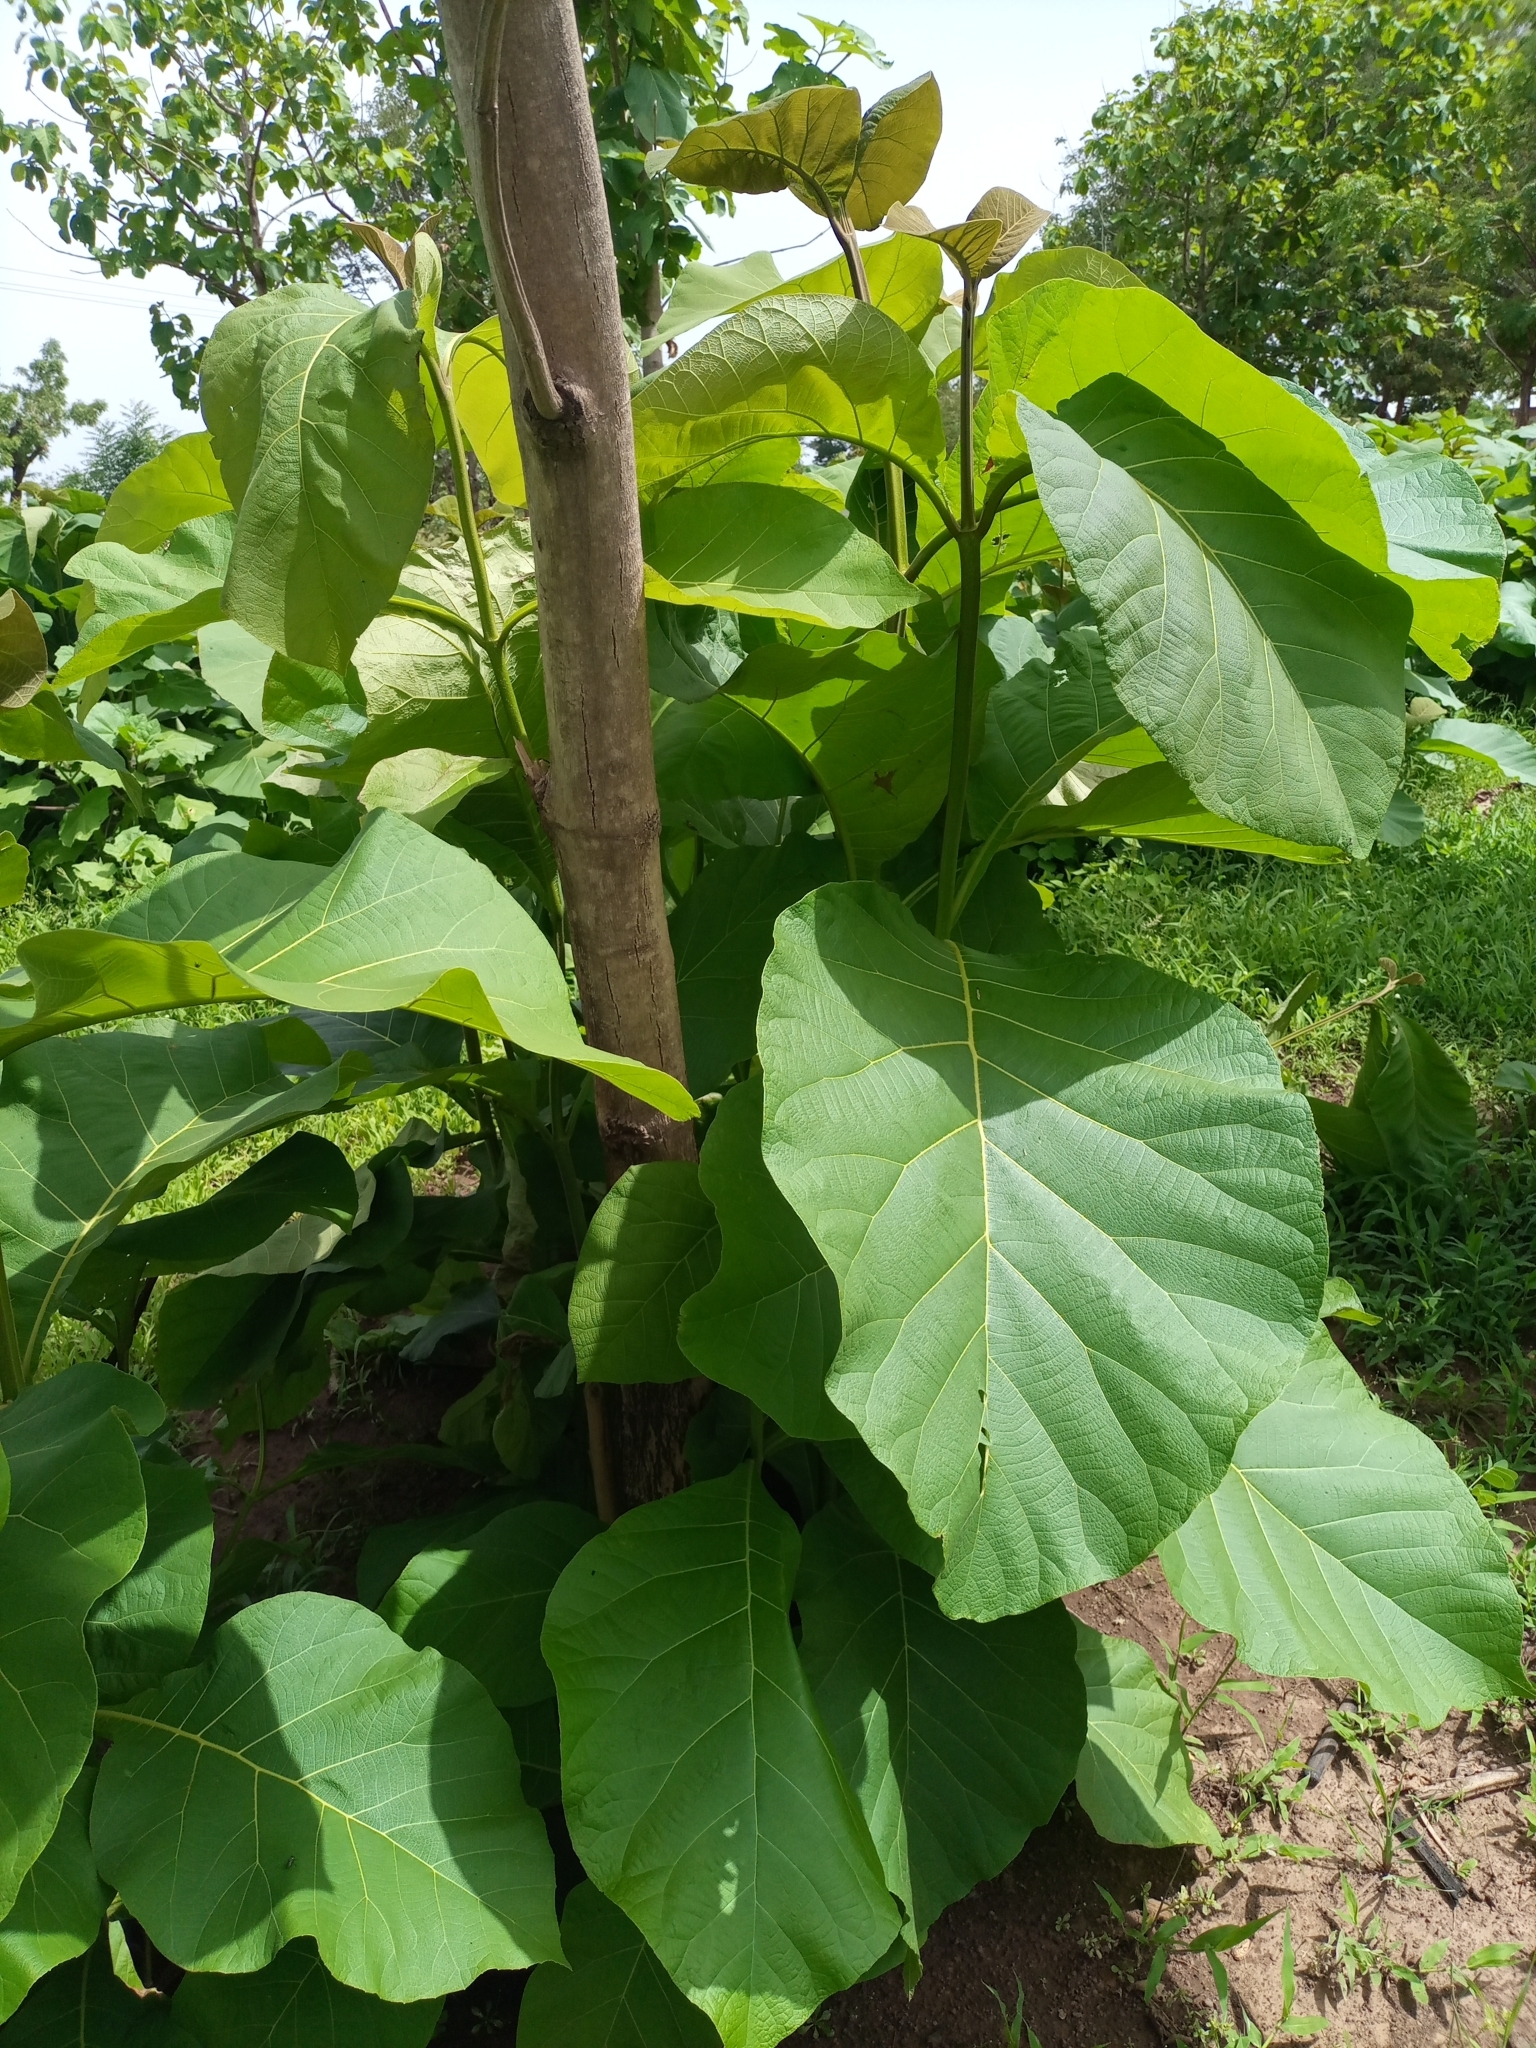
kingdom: Plantae
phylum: Tracheophyta
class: Magnoliopsida
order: Lamiales
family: Lamiaceae
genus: Tectona
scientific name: Tectona grandis
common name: Teak
